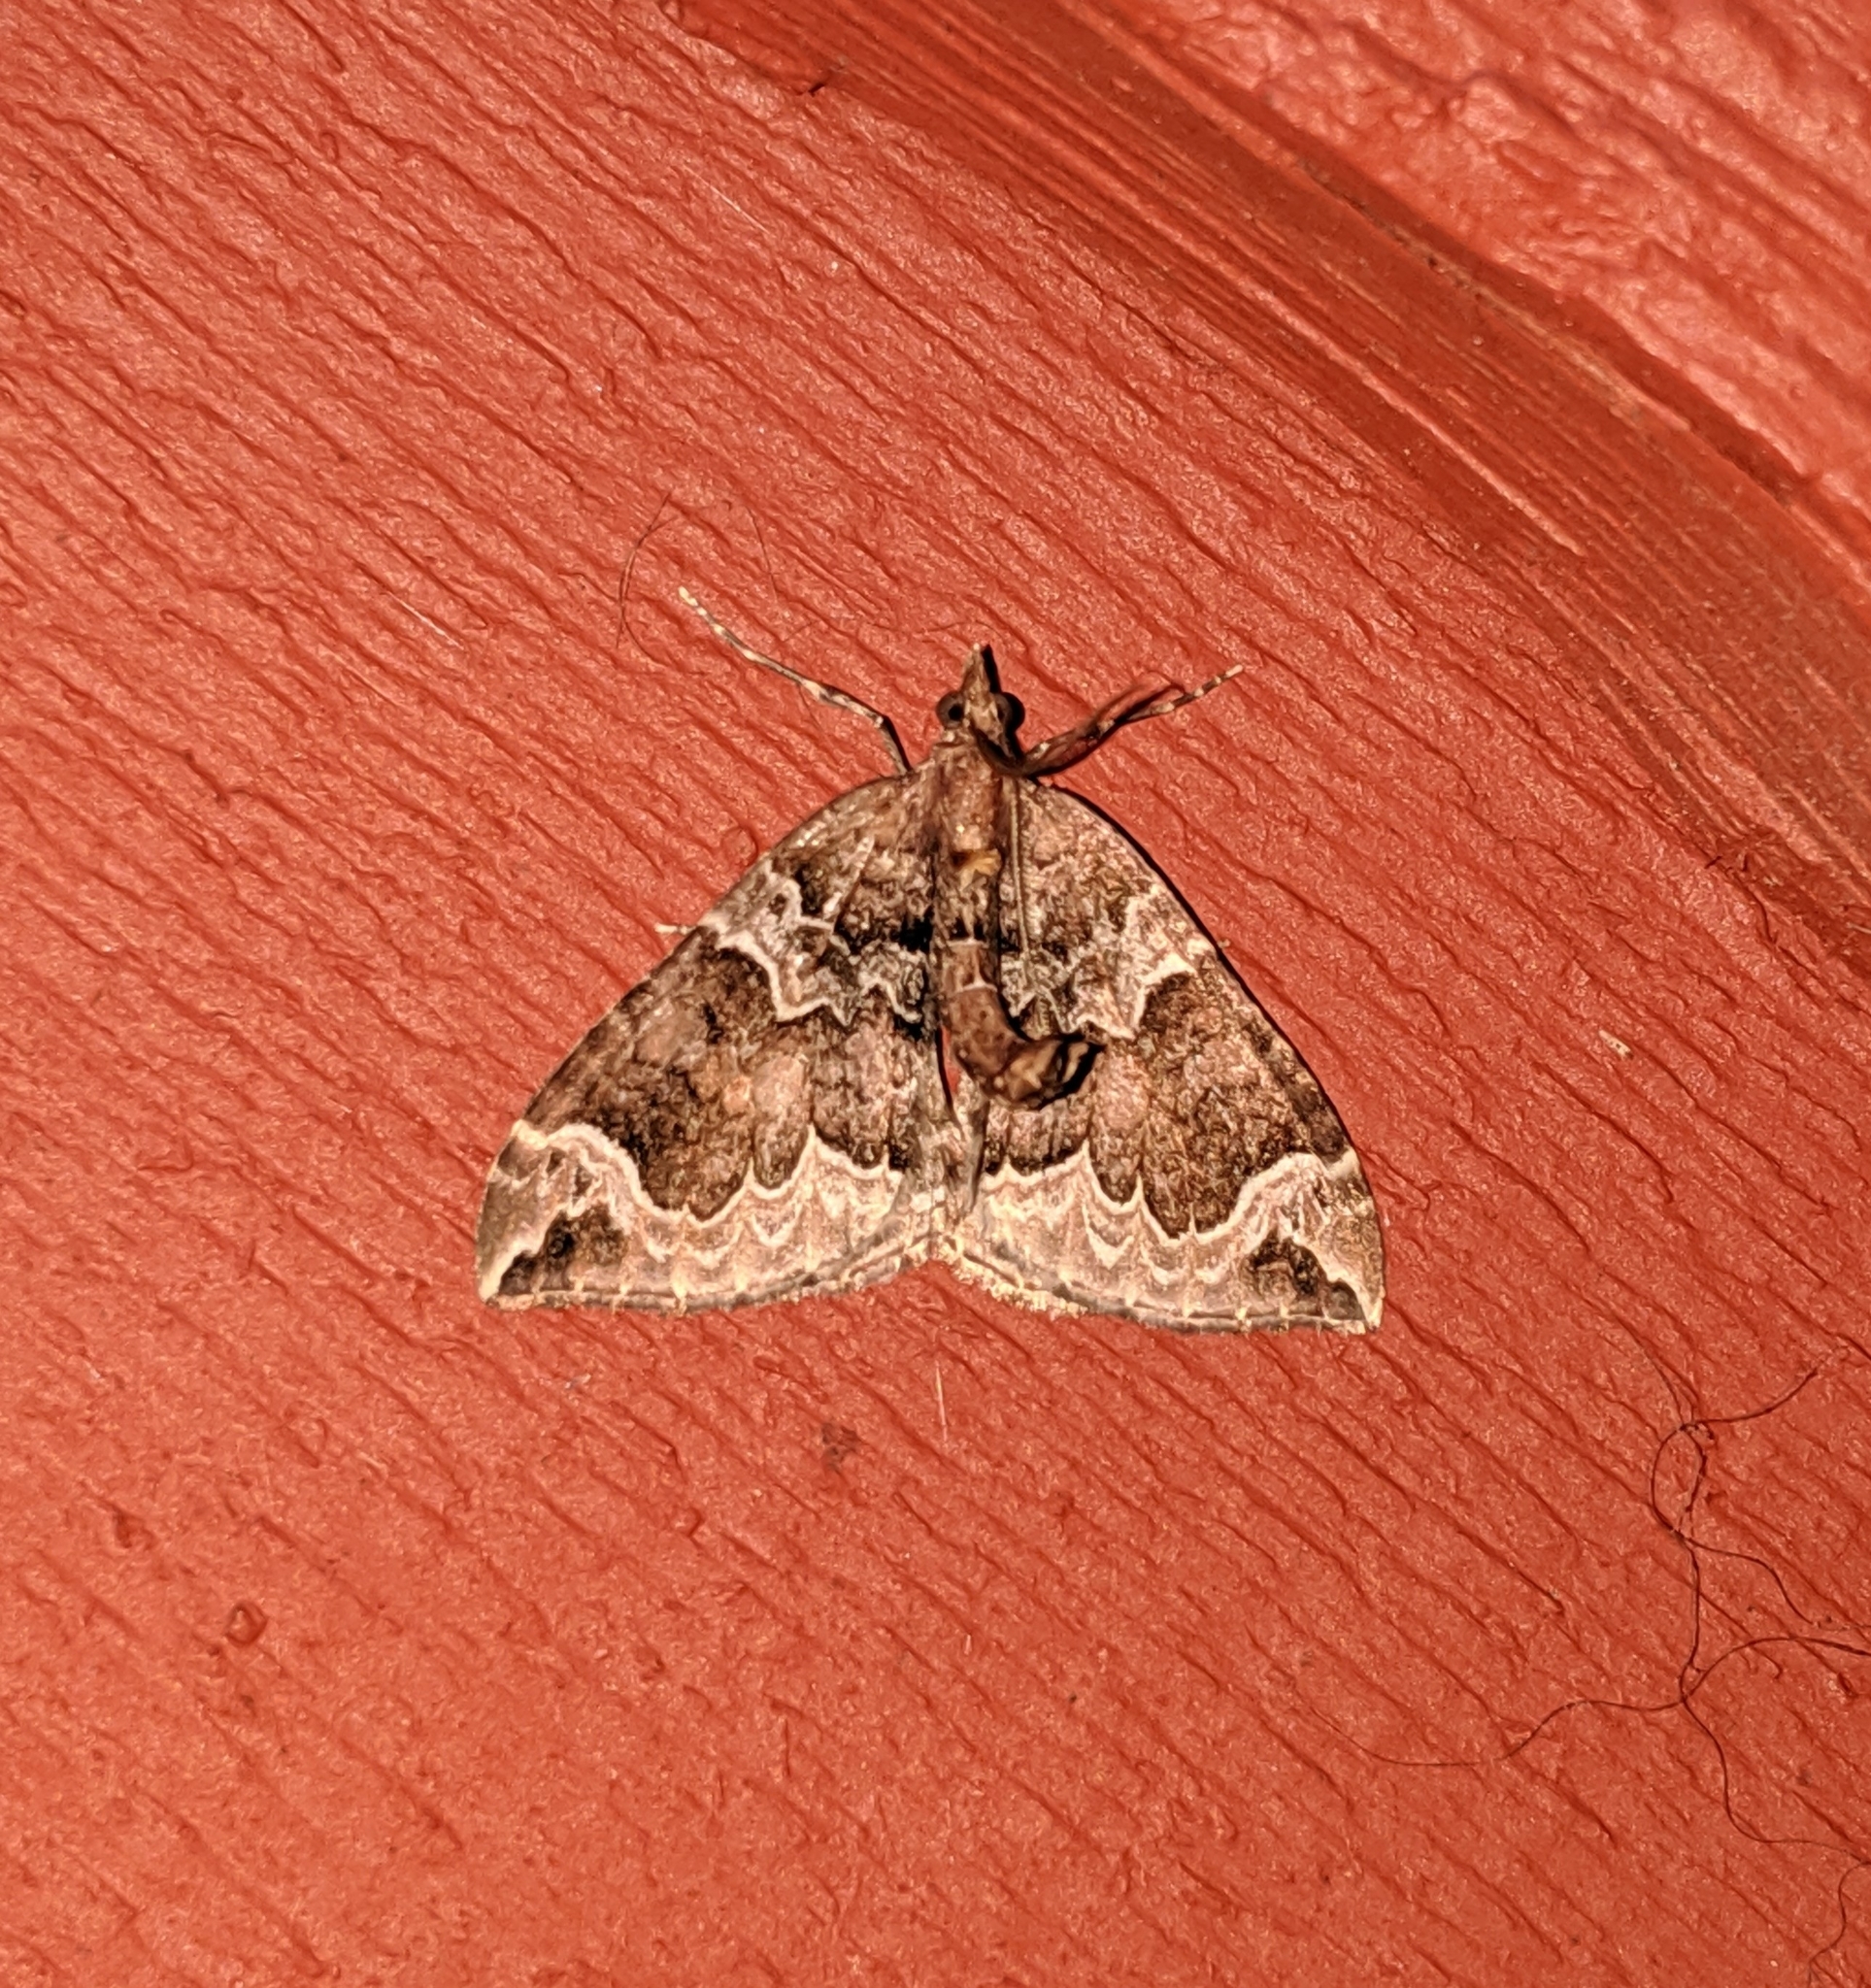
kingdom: Animalia
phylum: Arthropoda
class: Insecta
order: Lepidoptera
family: Geometridae
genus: Eulithis
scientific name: Eulithis xylina
